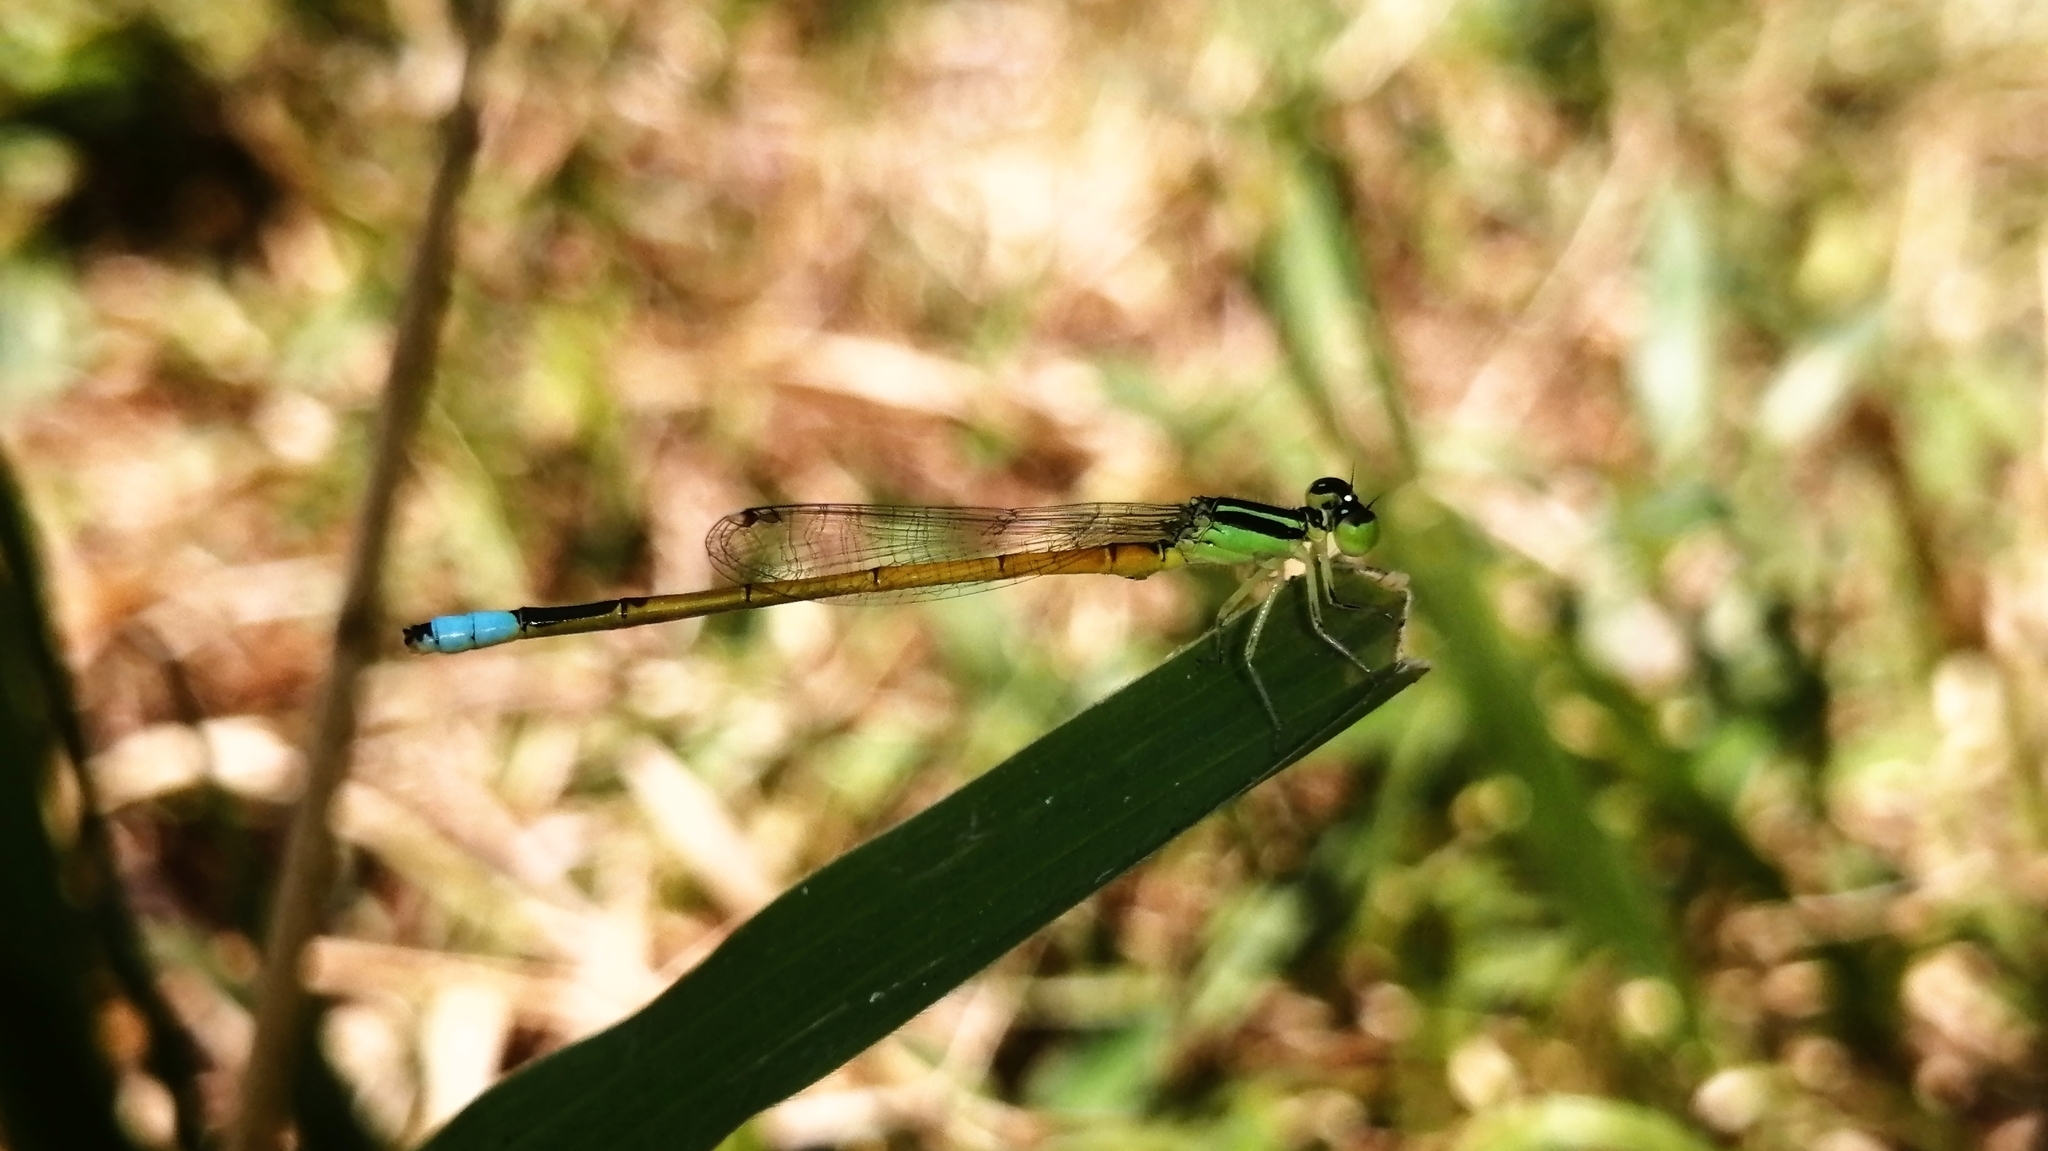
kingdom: Animalia
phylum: Arthropoda
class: Insecta
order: Odonata
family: Coenagrionidae
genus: Ischnura
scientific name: Ischnura senegalensis
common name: Tropical bluetail
